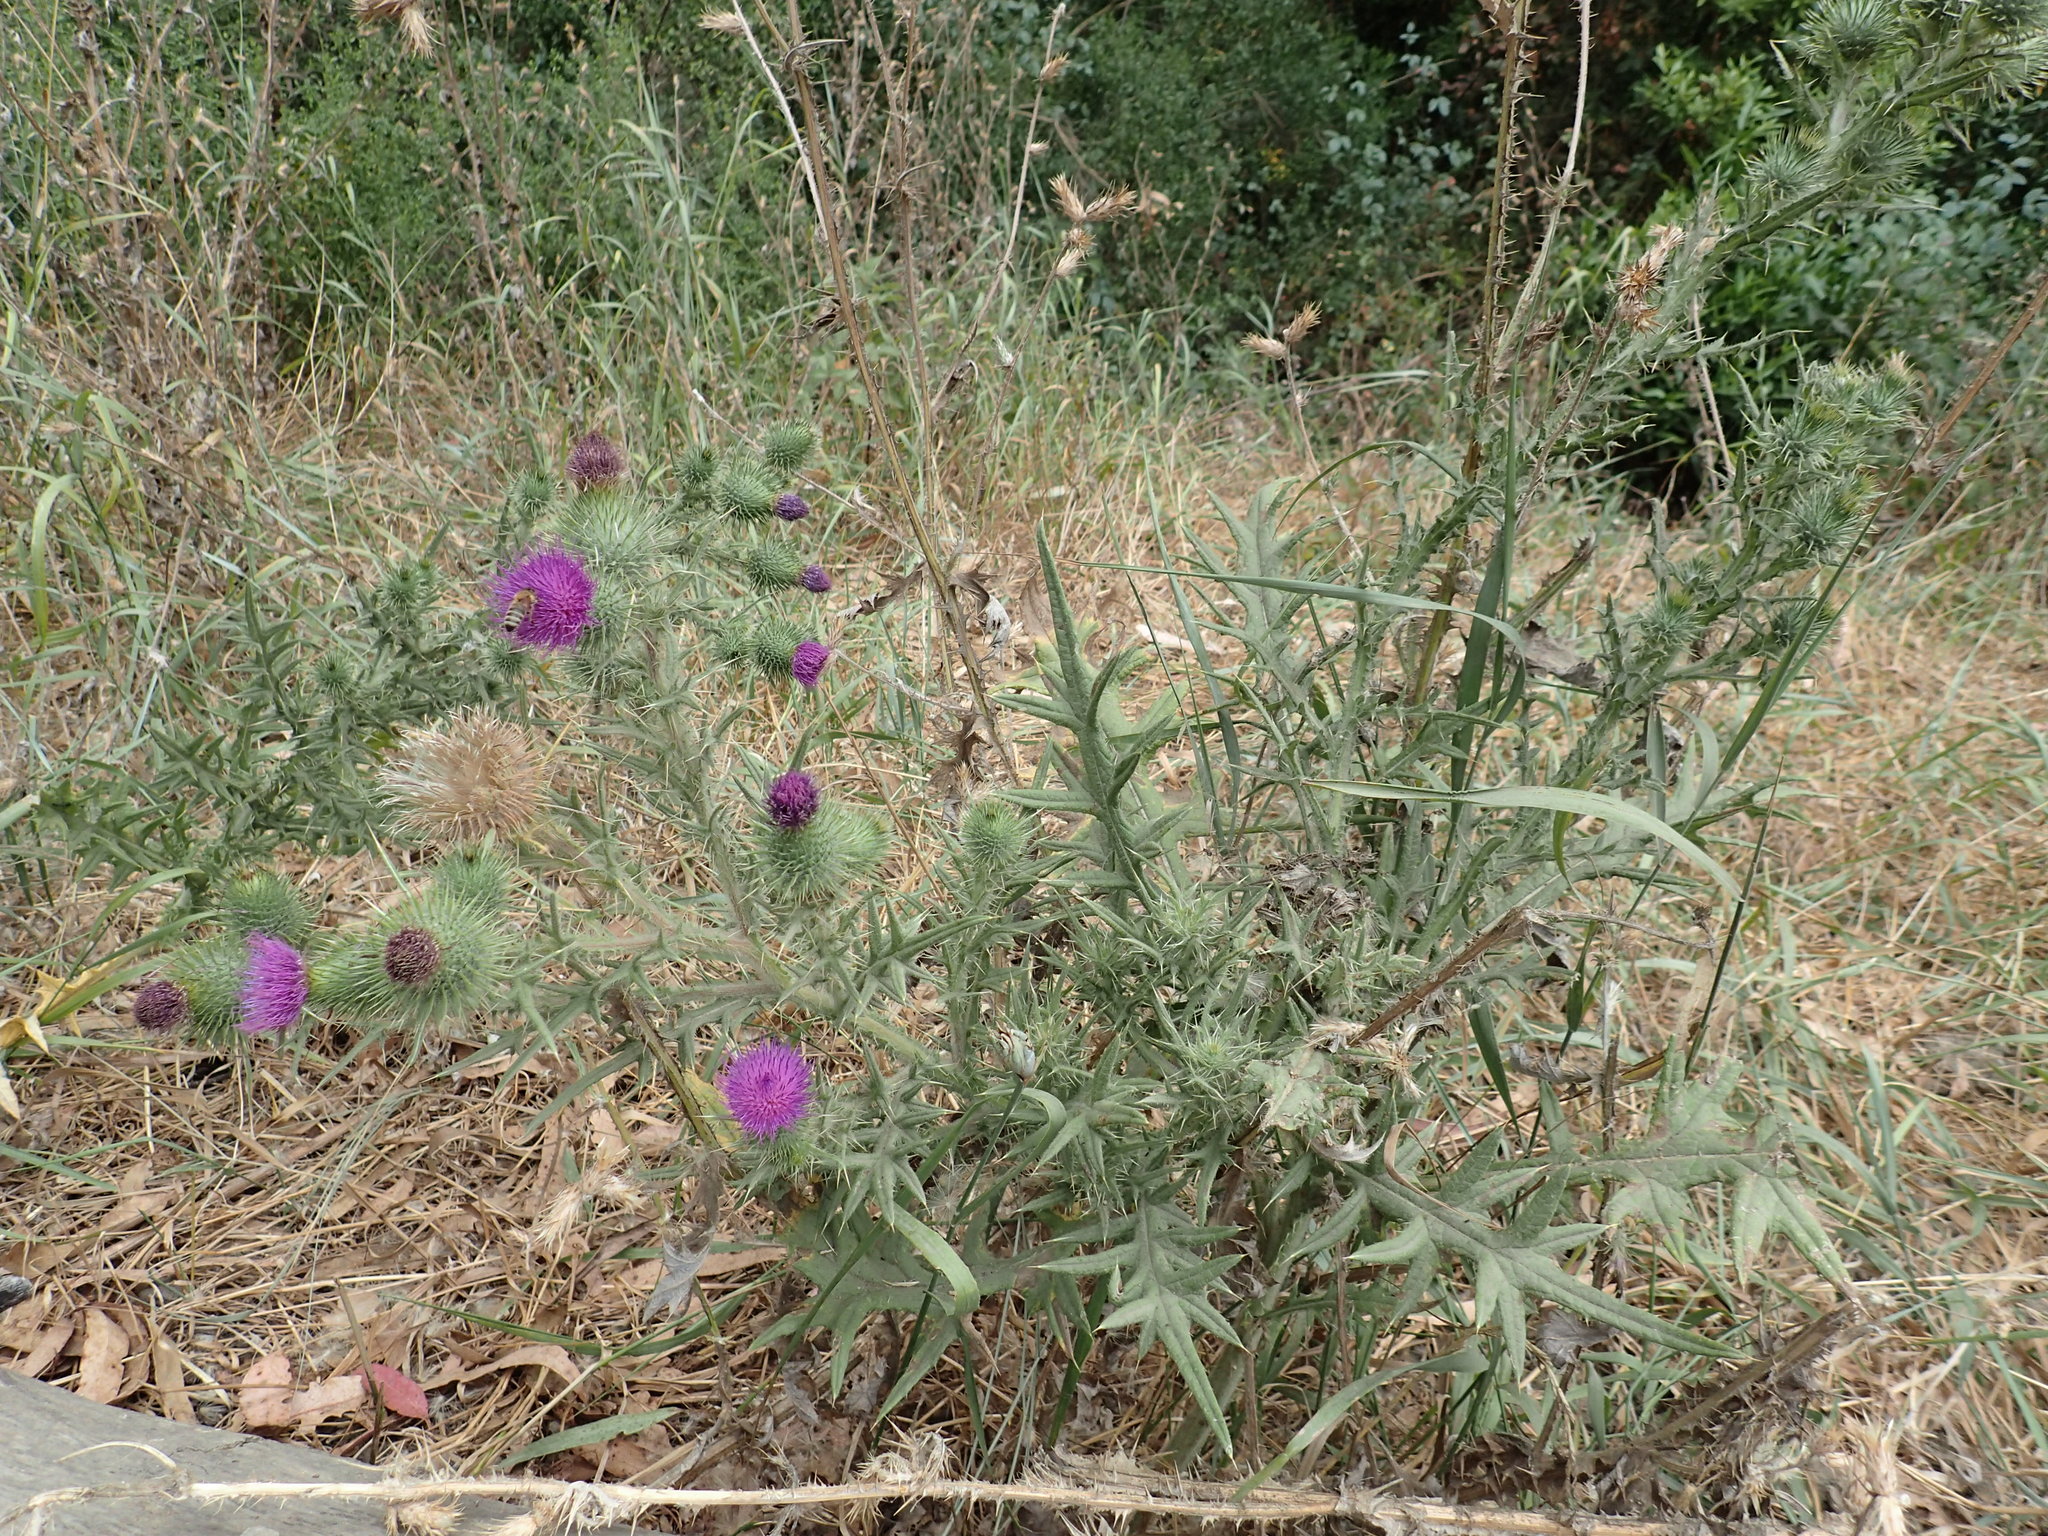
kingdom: Plantae
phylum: Tracheophyta
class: Magnoliopsida
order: Asterales
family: Asteraceae
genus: Cirsium
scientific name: Cirsium vulgare
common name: Bull thistle
